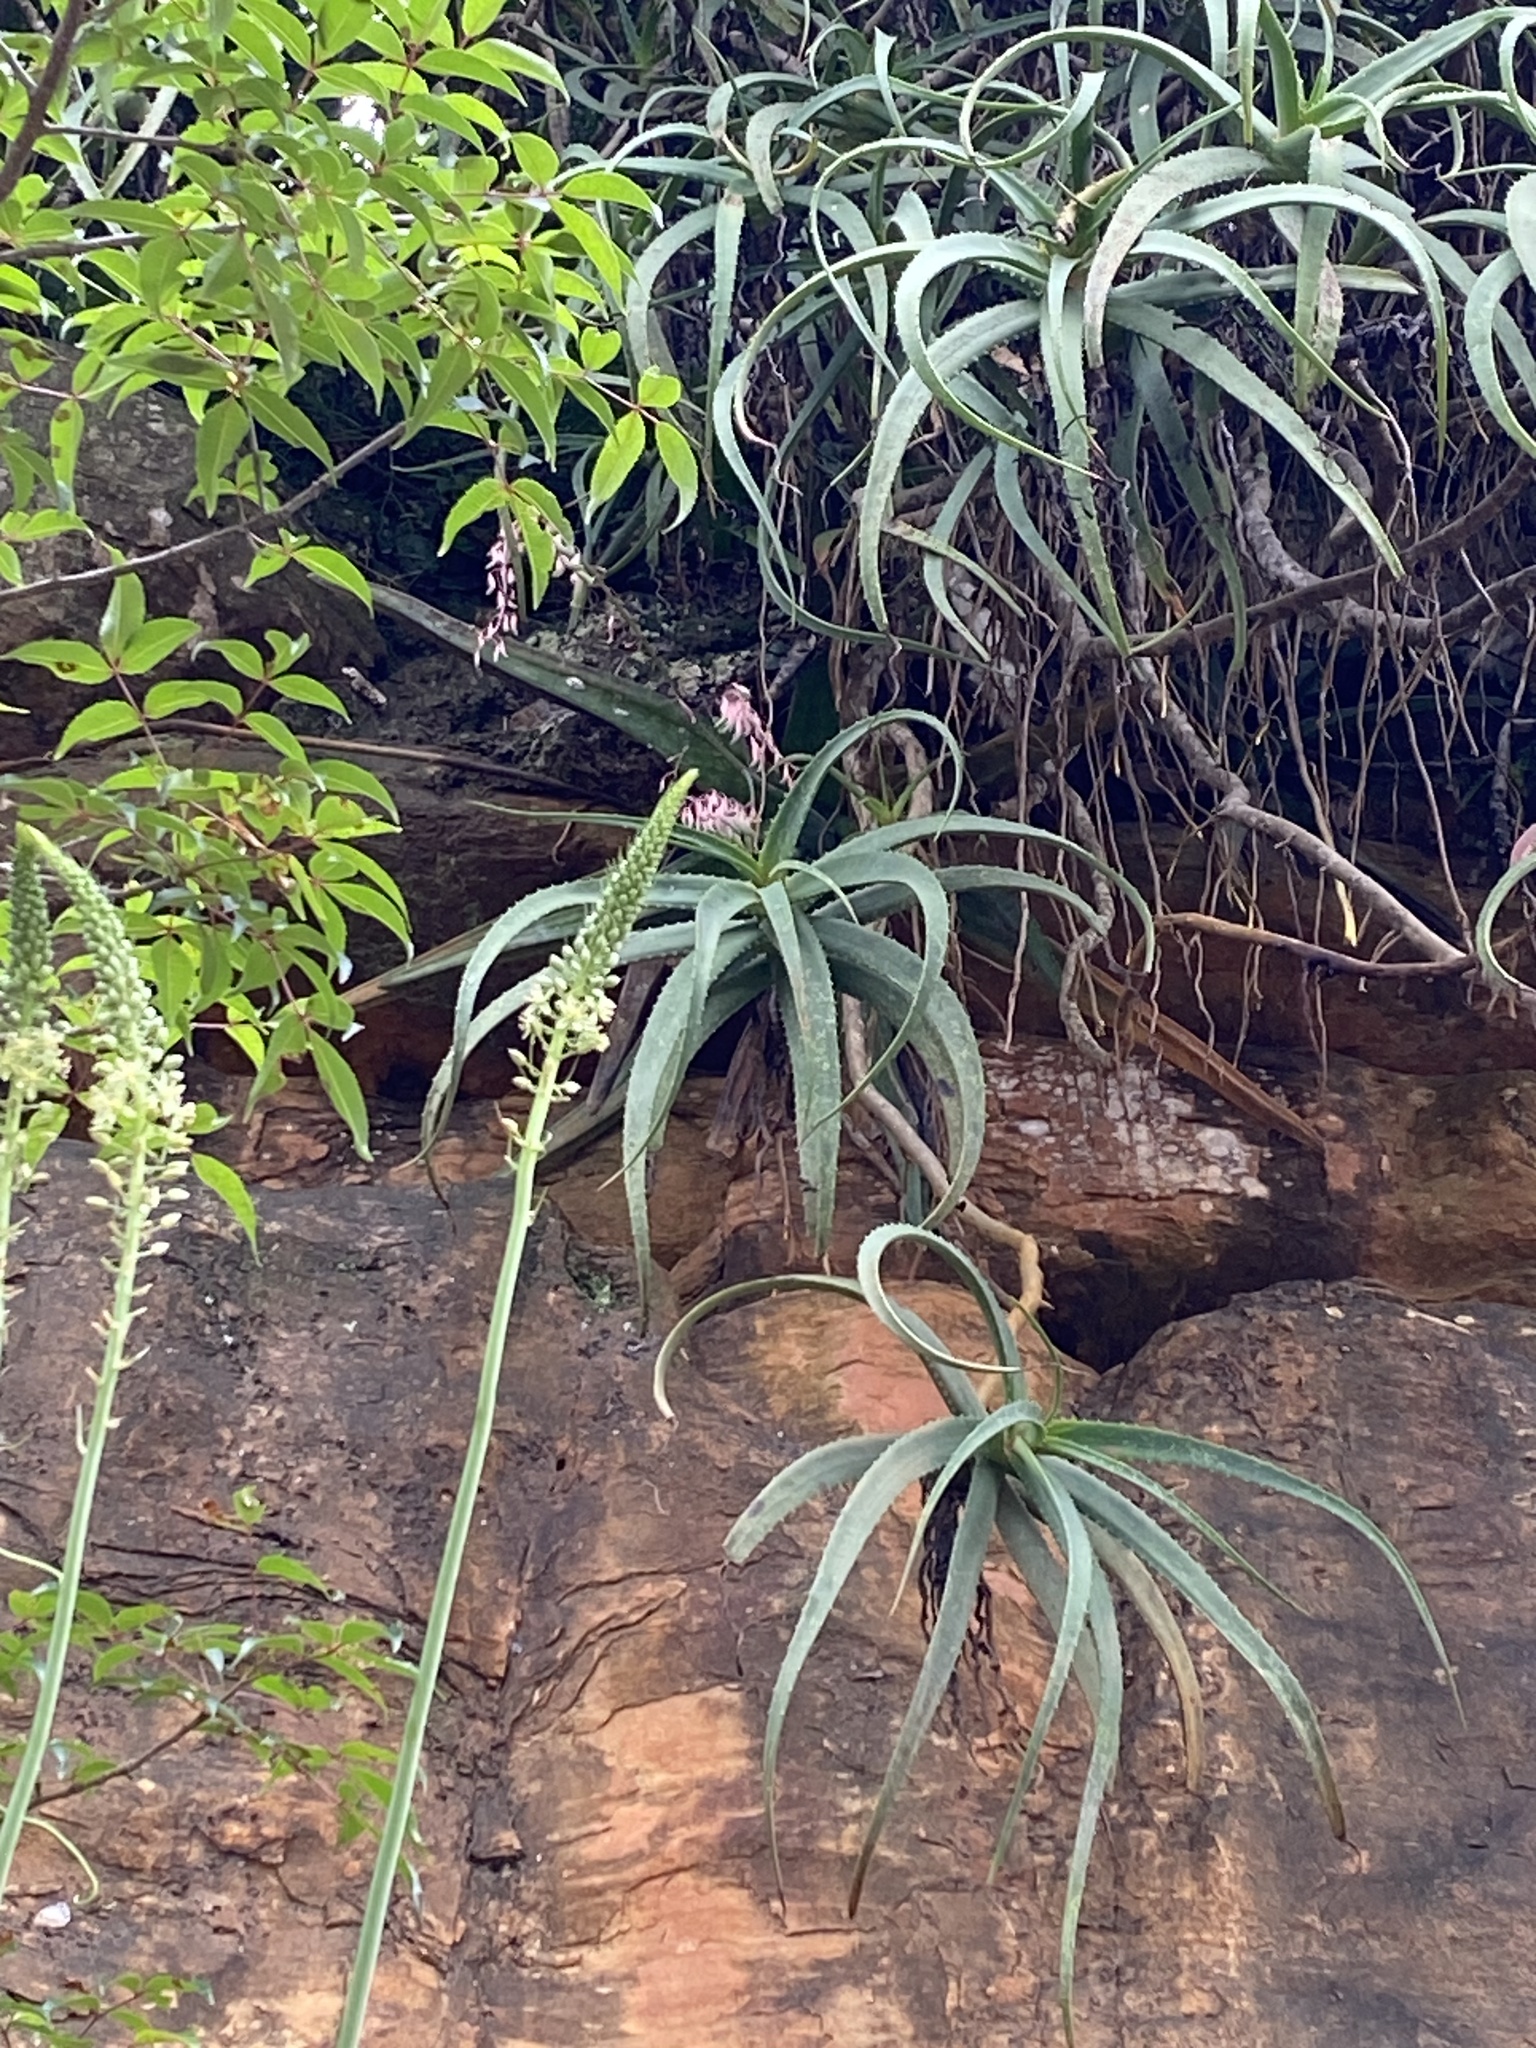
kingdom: Plantae
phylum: Tracheophyta
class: Liliopsida
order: Asparagales
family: Asphodelaceae
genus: Aloe
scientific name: Aloe arborescens
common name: Candelabra aloe
